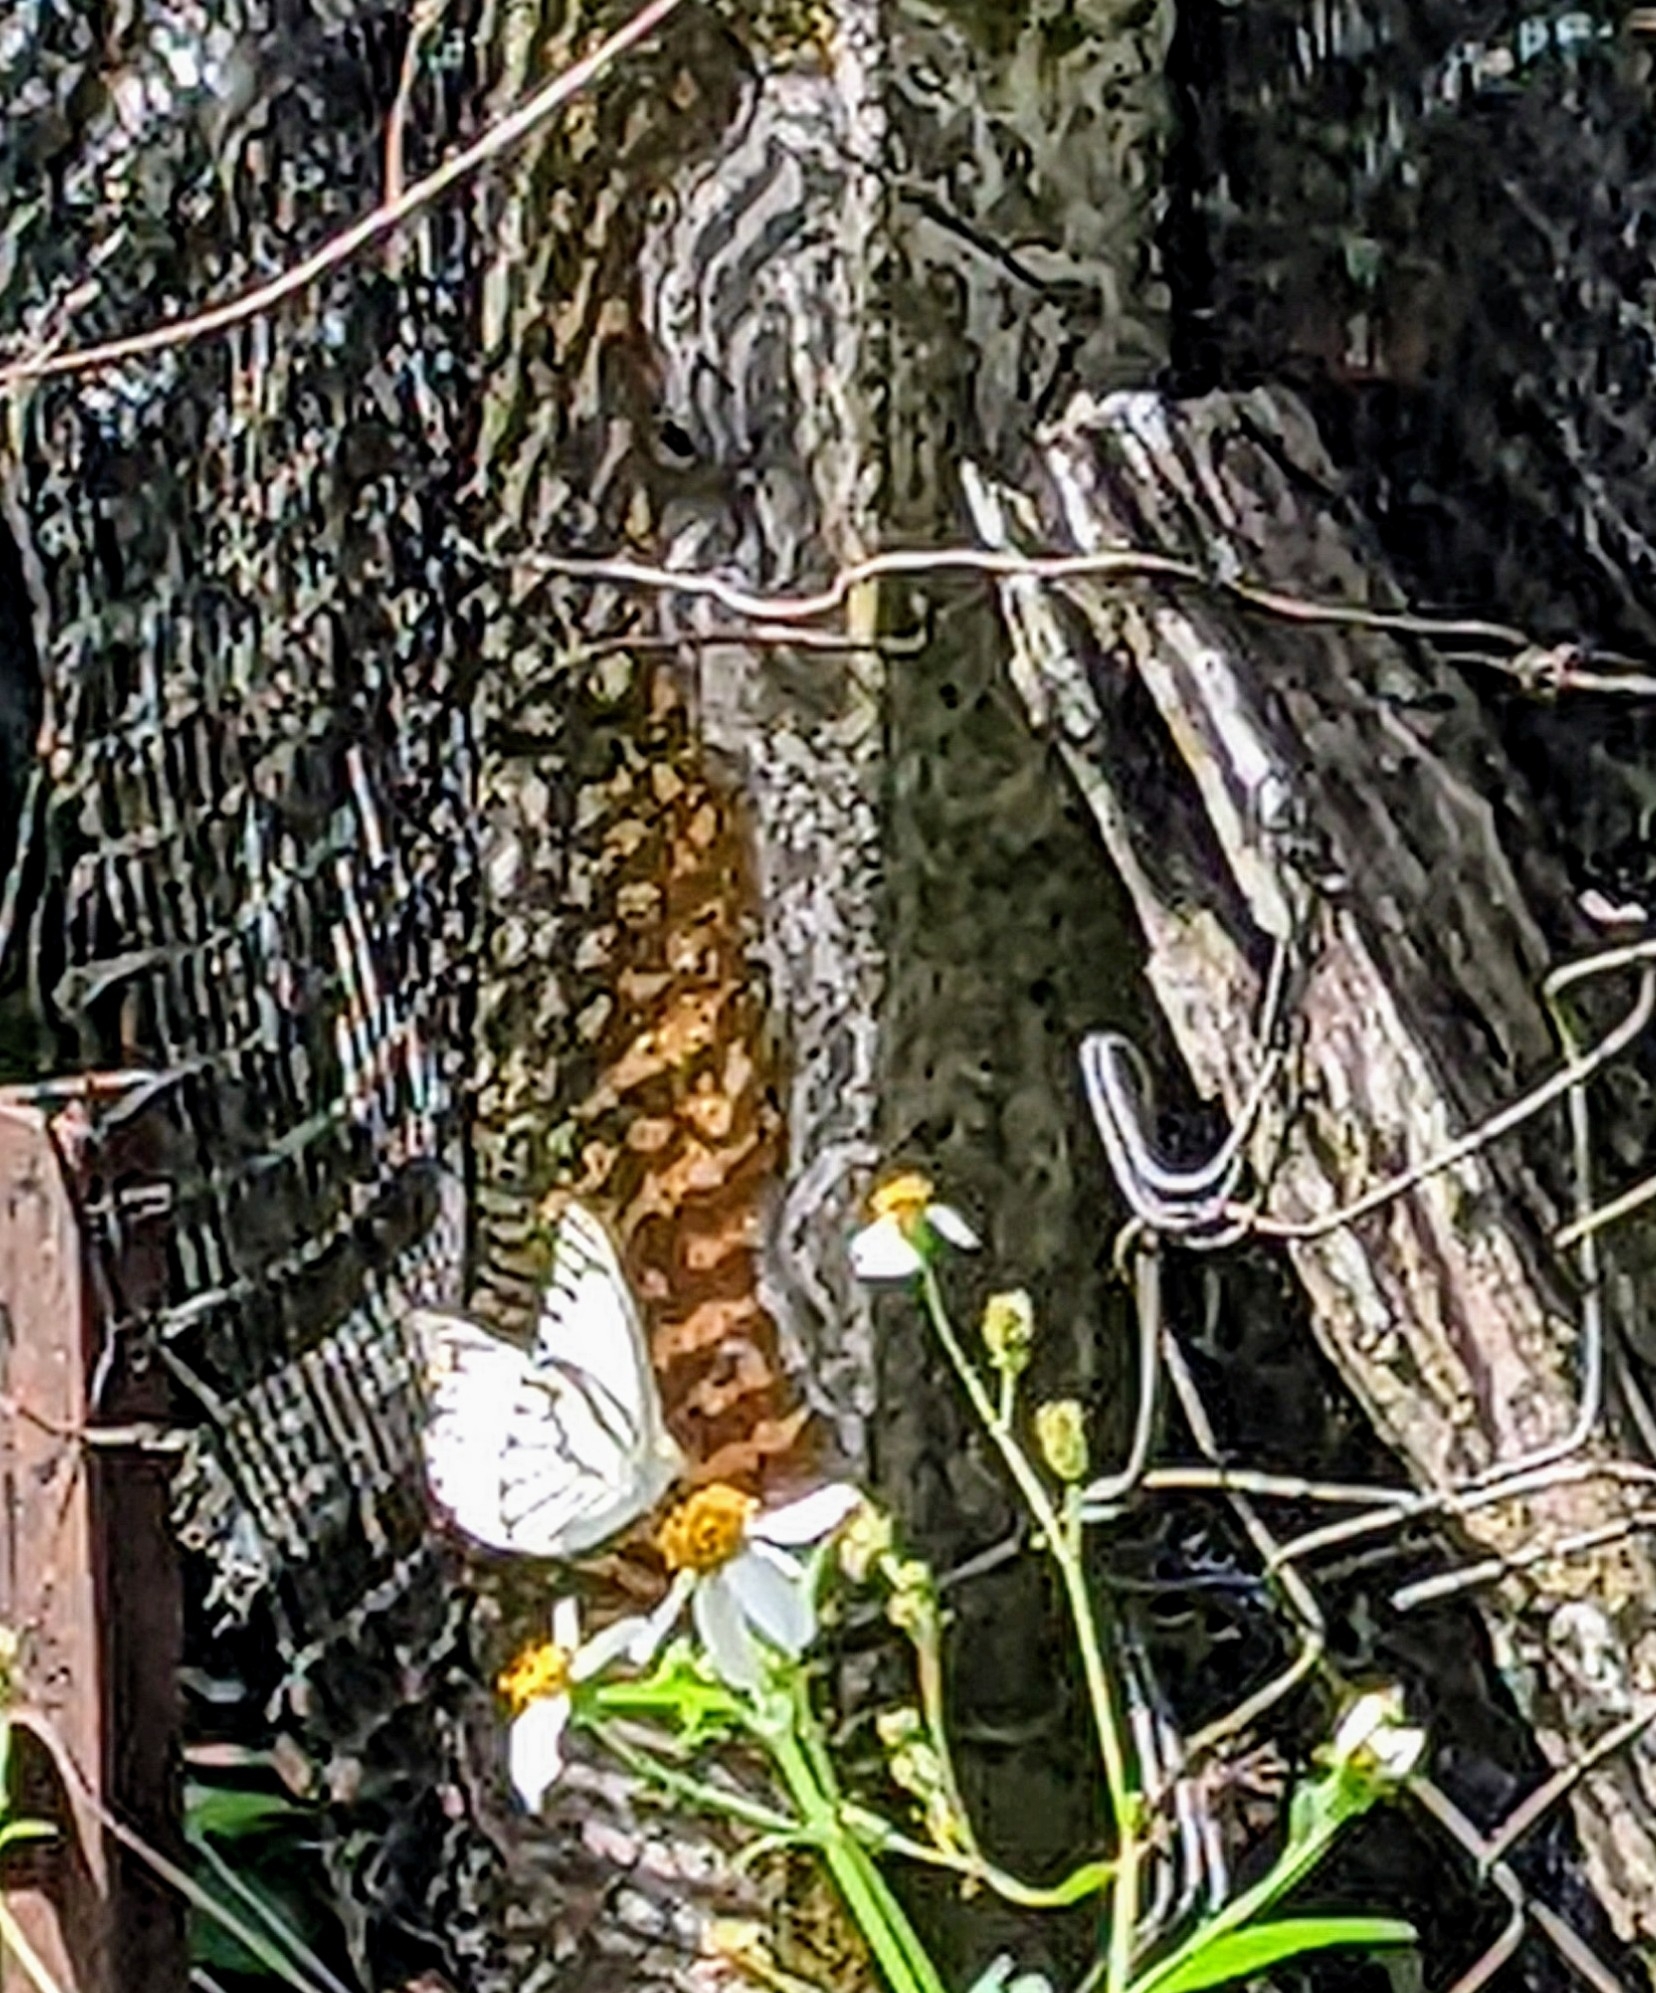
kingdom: Animalia
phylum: Arthropoda
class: Insecta
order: Lepidoptera
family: Pieridae
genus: Appias
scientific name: Appias libythea
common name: Striped albatross
